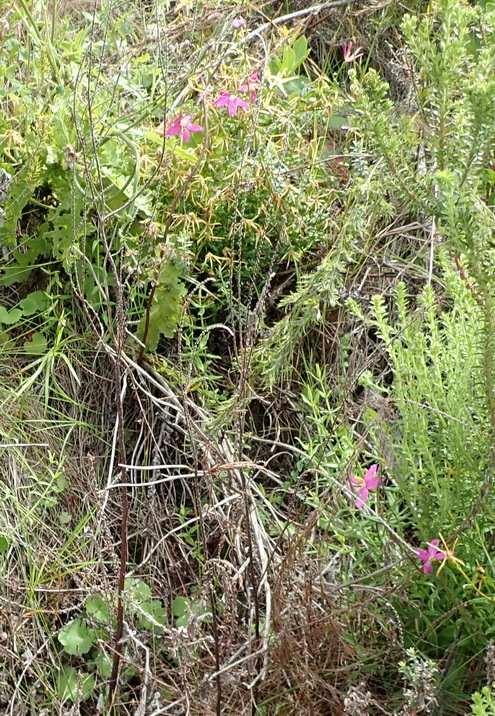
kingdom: Plantae
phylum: Tracheophyta
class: Magnoliopsida
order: Gentianales
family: Gentianaceae
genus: Chironia
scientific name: Chironia melampyrifolia
